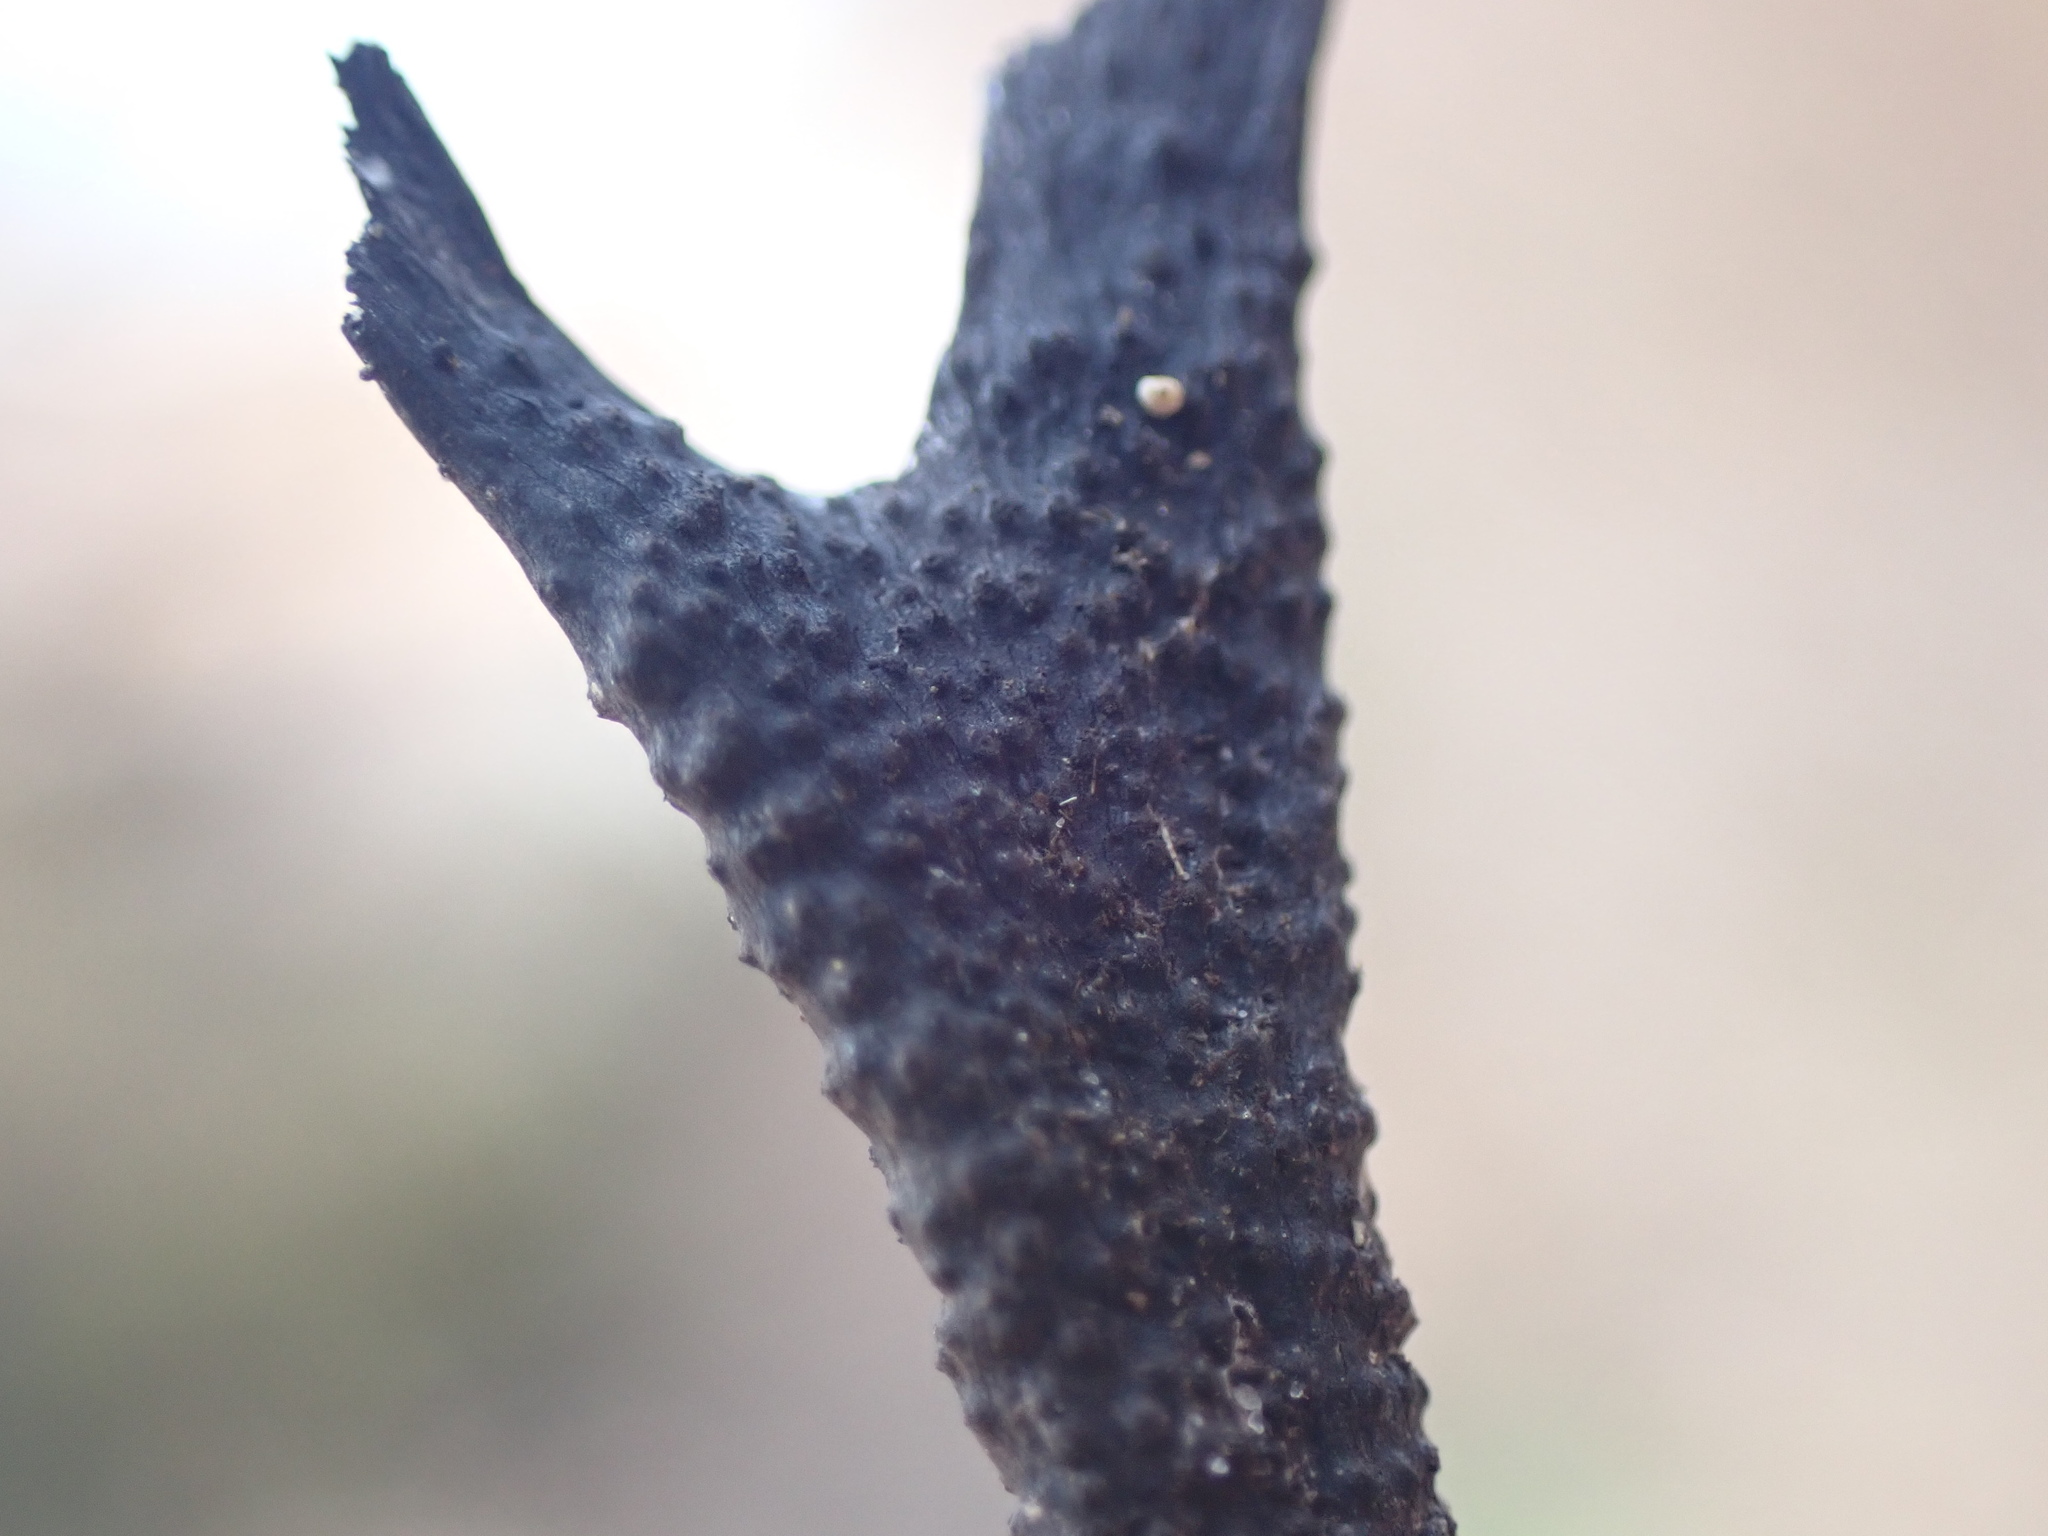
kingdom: Fungi
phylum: Ascomycota
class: Sordariomycetes
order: Xylariales
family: Xylariaceae
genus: Xylaria
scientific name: Xylaria hypoxylon
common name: Candle-snuff fungus
